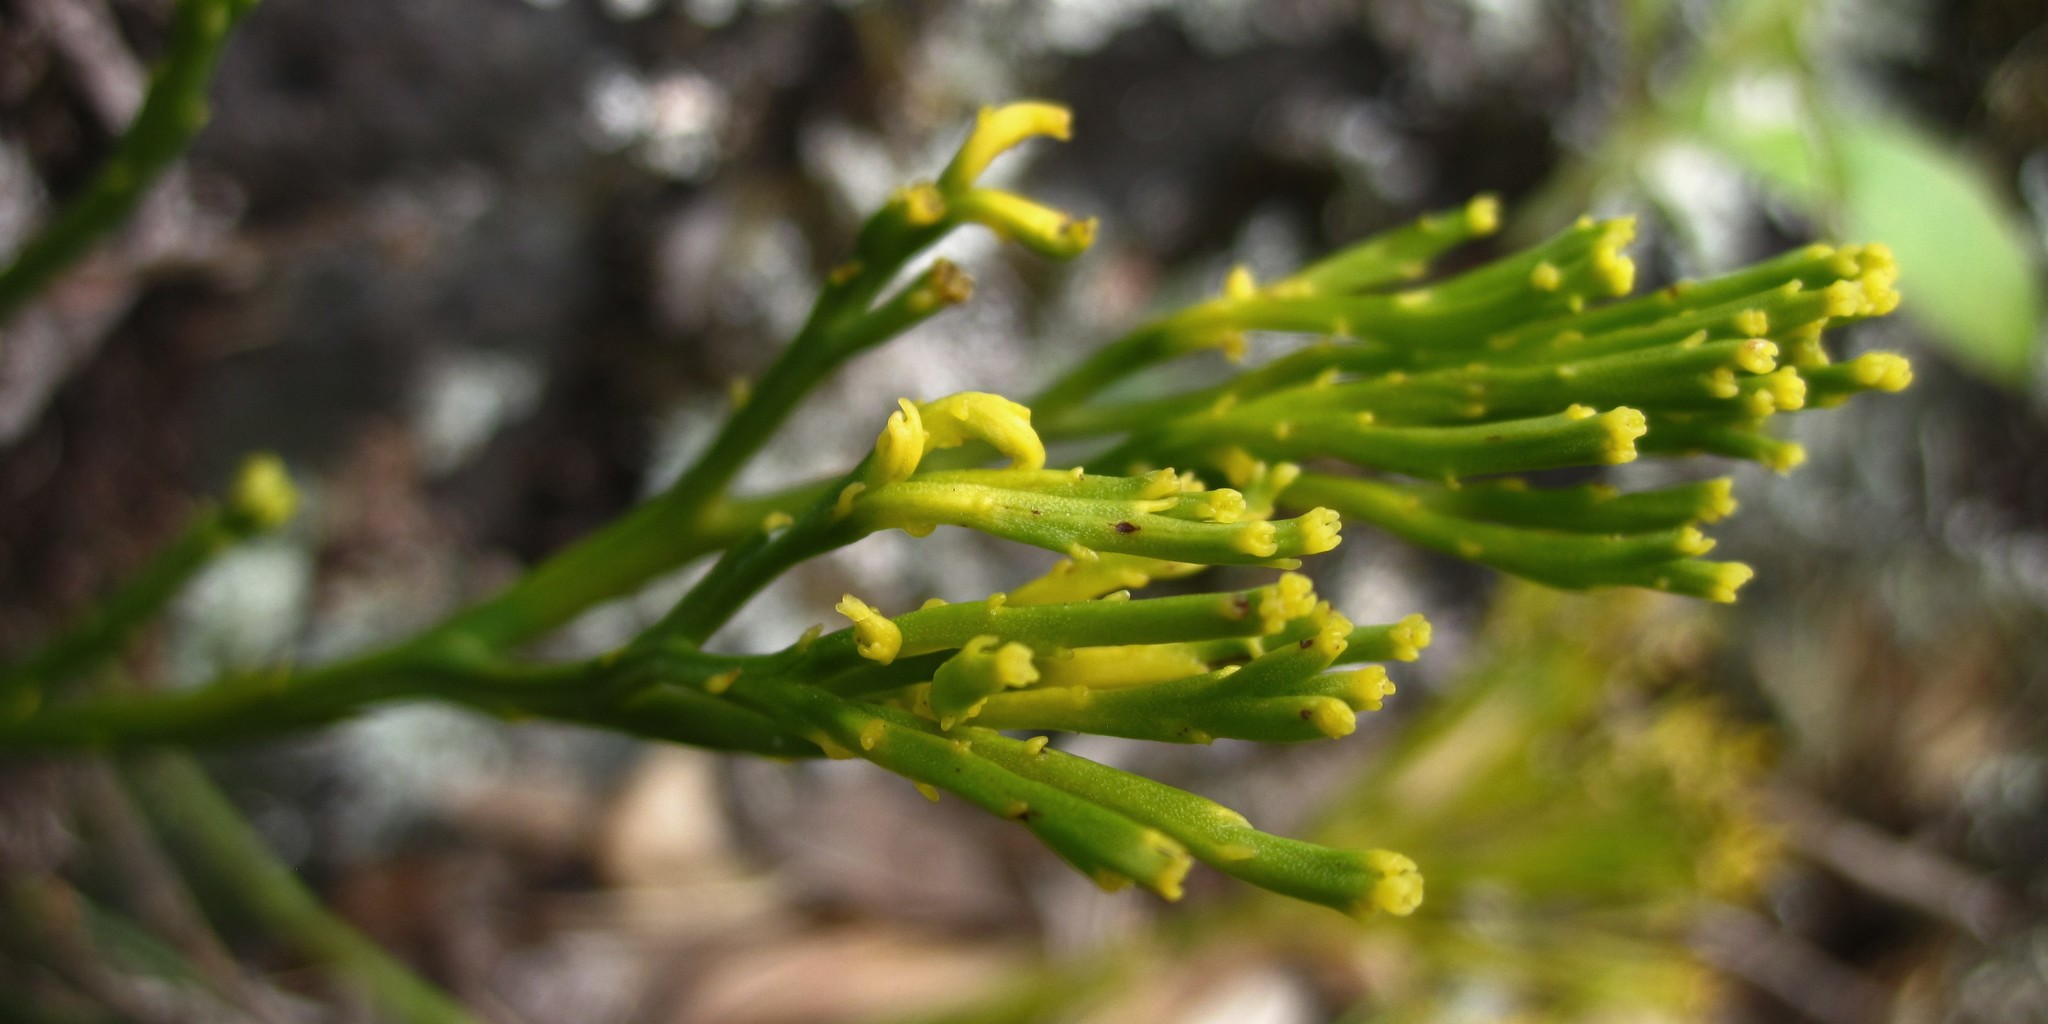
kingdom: Plantae
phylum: Tracheophyta
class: Polypodiopsida
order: Psilotales
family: Psilotaceae
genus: Psilotum
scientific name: Psilotum nudum
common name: Skeleton fork fern
